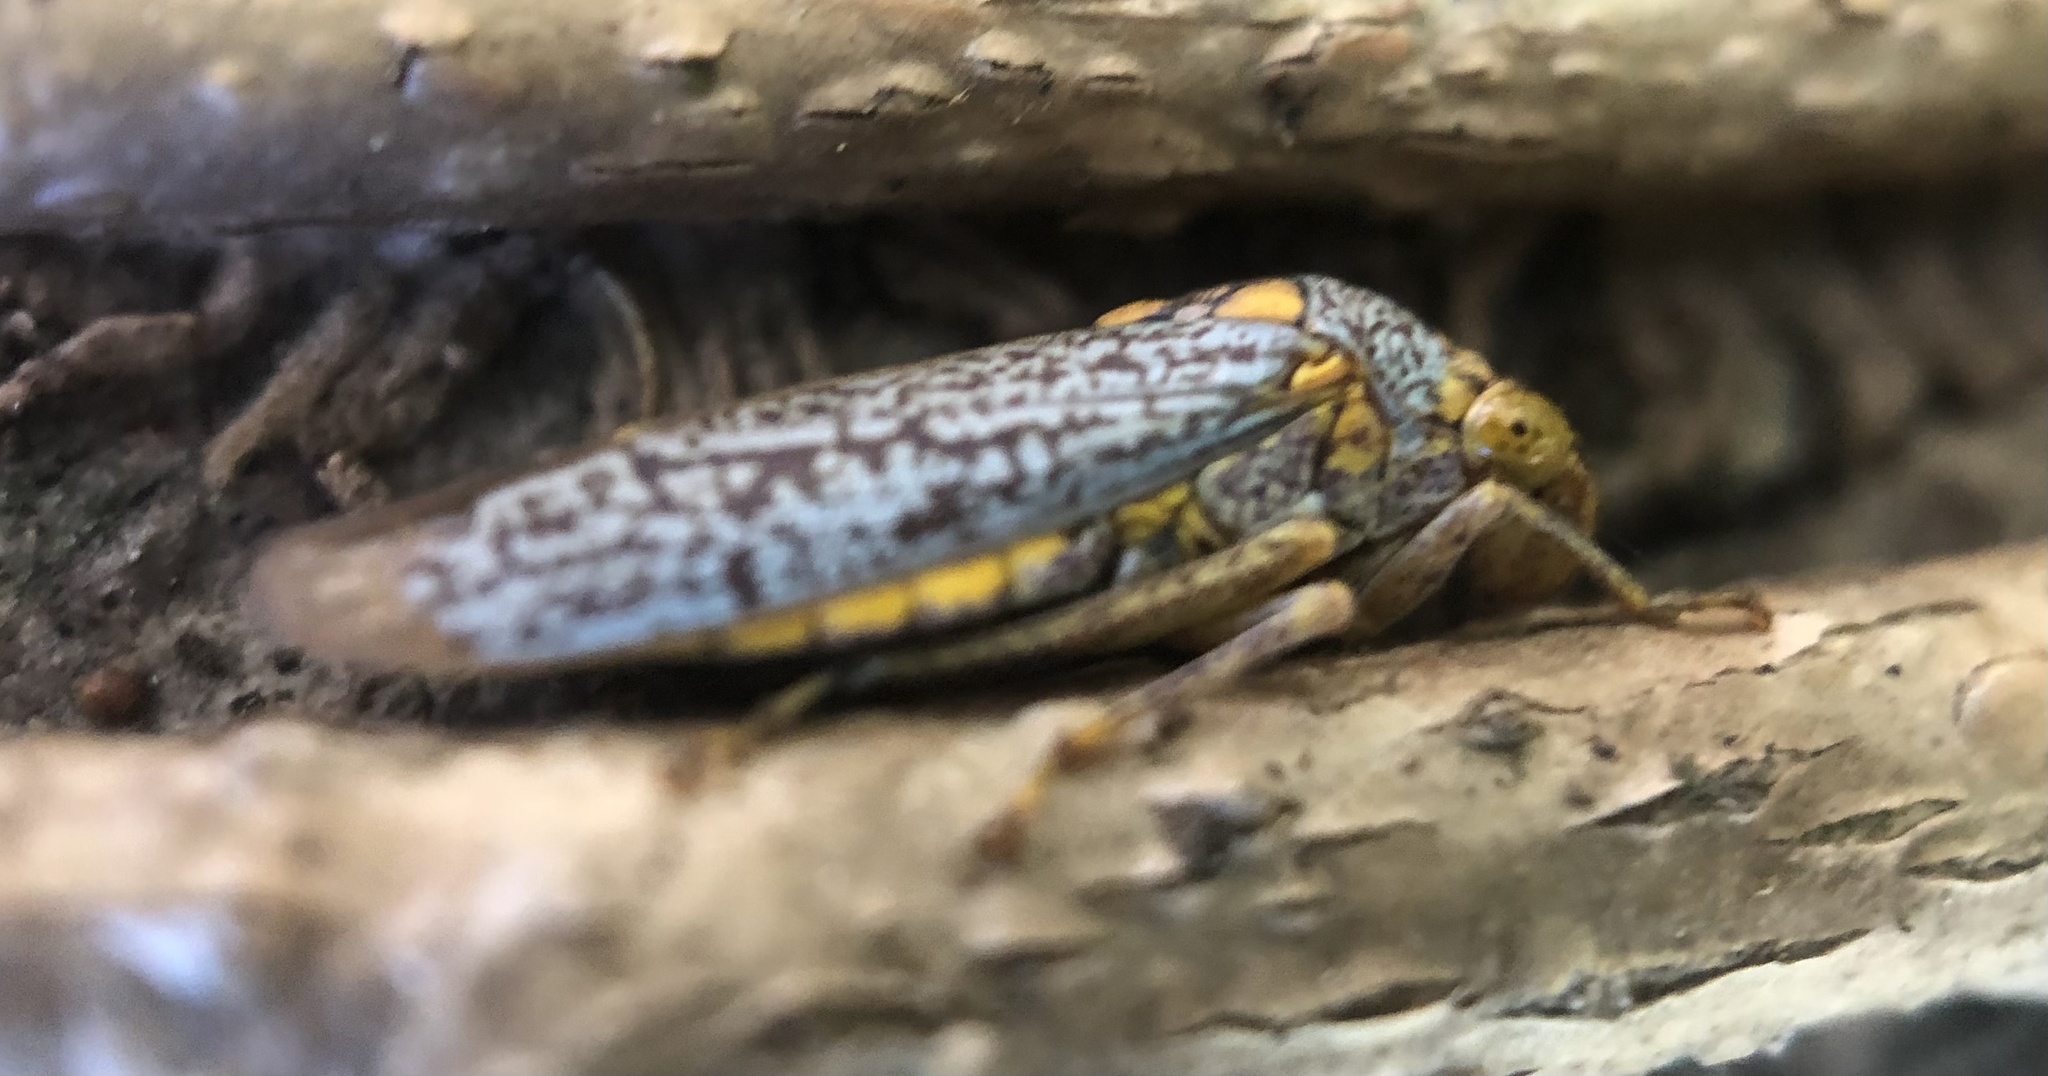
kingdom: Animalia
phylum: Arthropoda
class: Insecta
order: Hemiptera
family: Cicadellidae
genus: Oncometopia
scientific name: Oncometopia orbona
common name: Broad-headed sharpshooter
